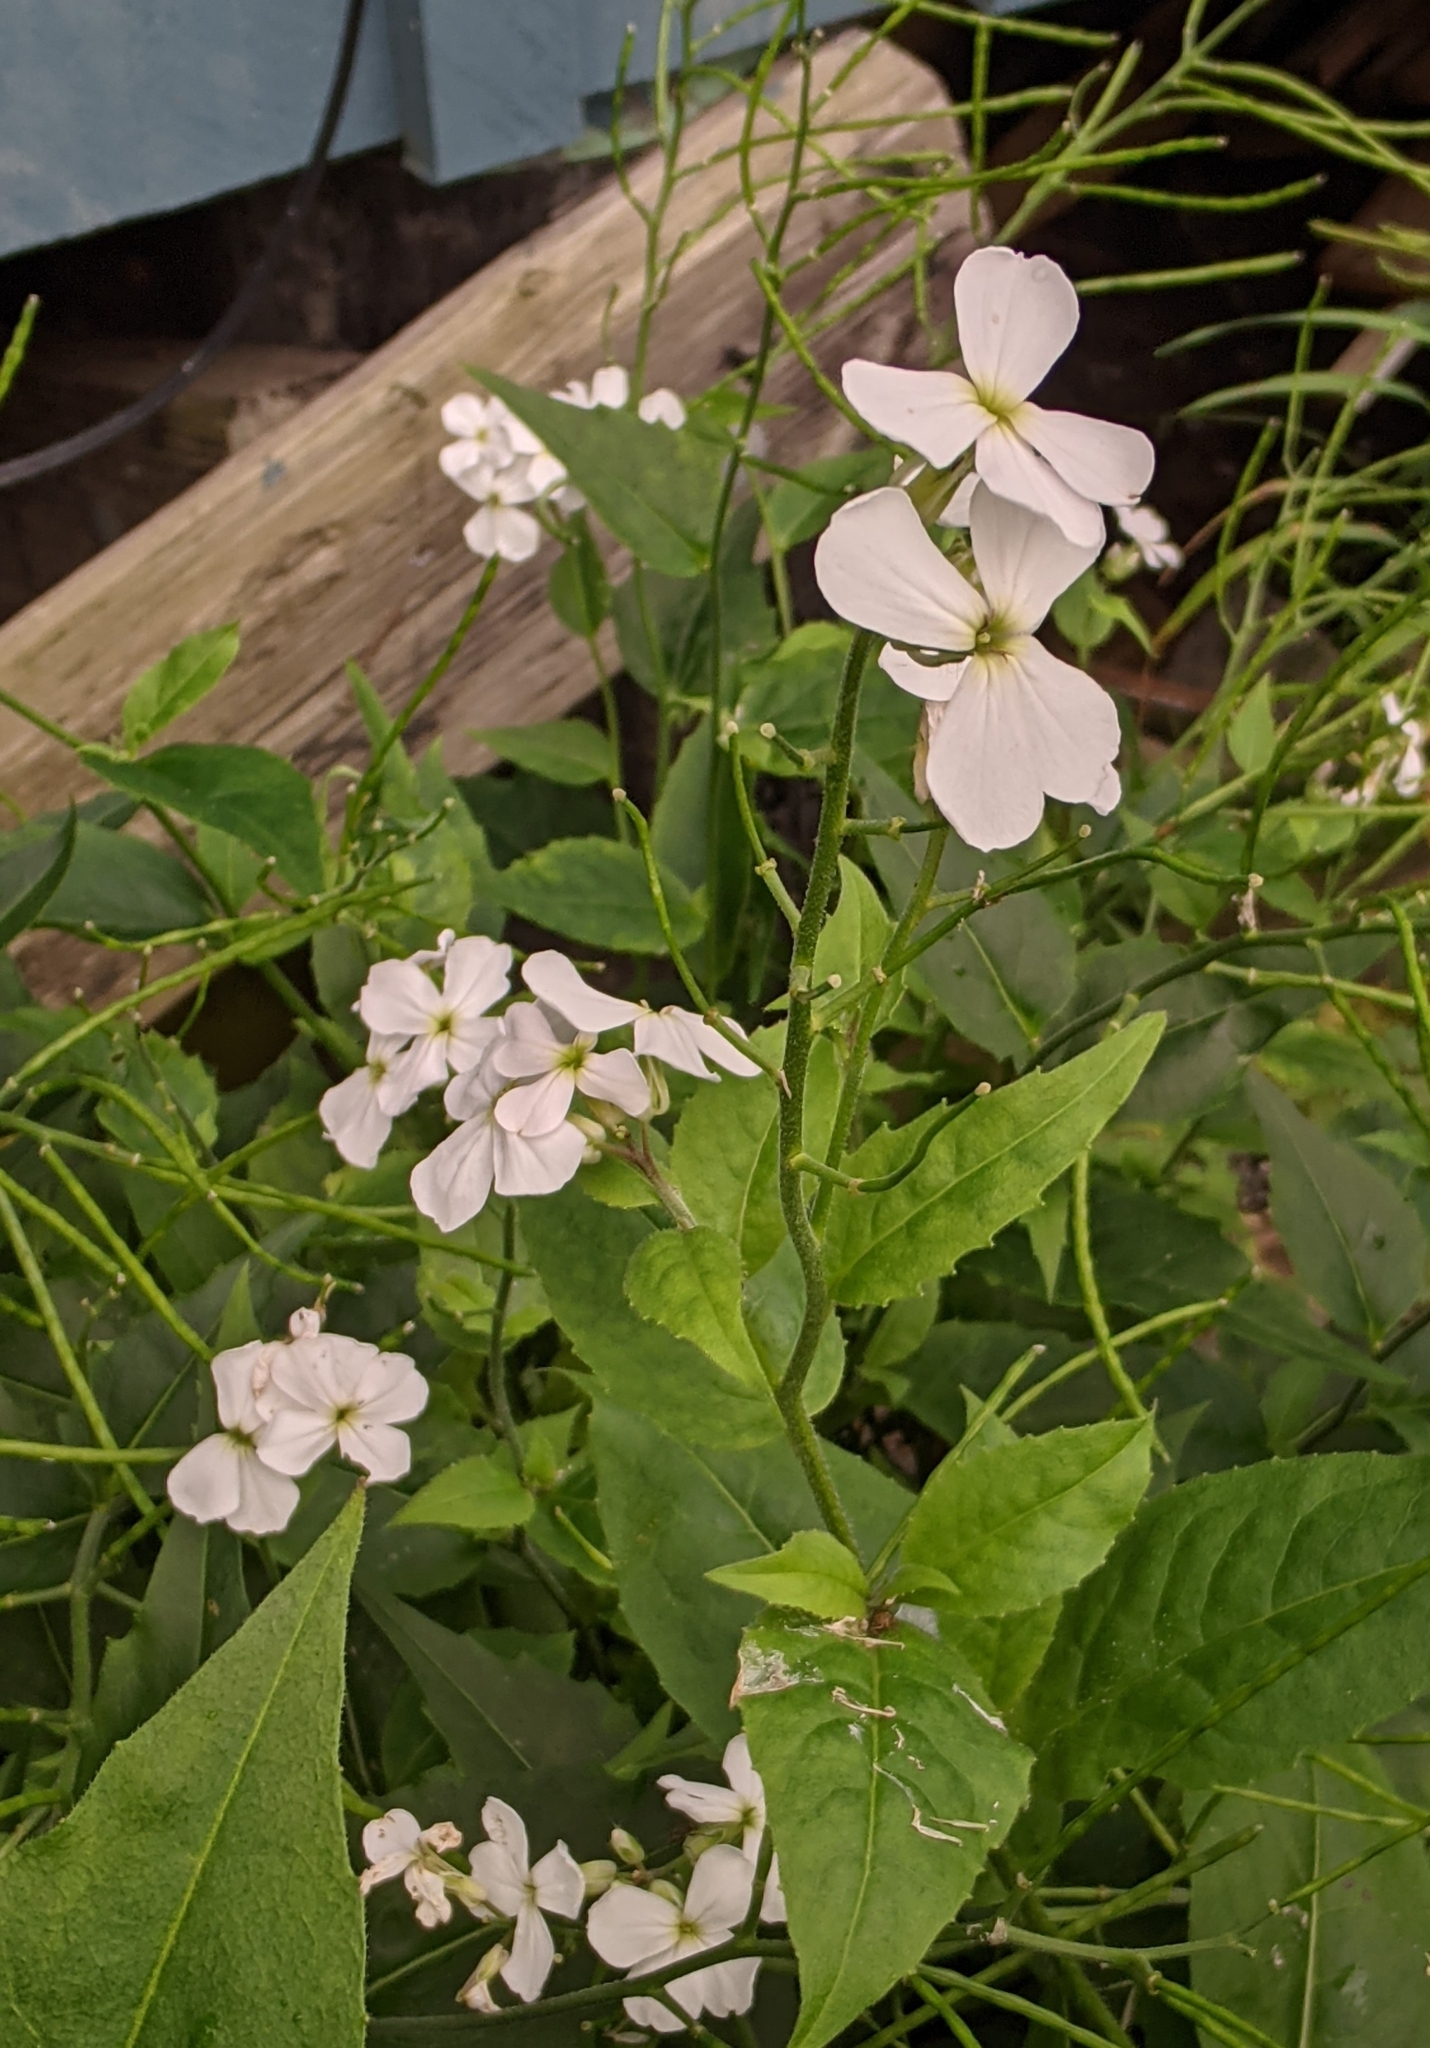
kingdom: Plantae
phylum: Tracheophyta
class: Magnoliopsida
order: Brassicales
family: Brassicaceae
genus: Hesperis
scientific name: Hesperis matronalis
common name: Dame's-violet
